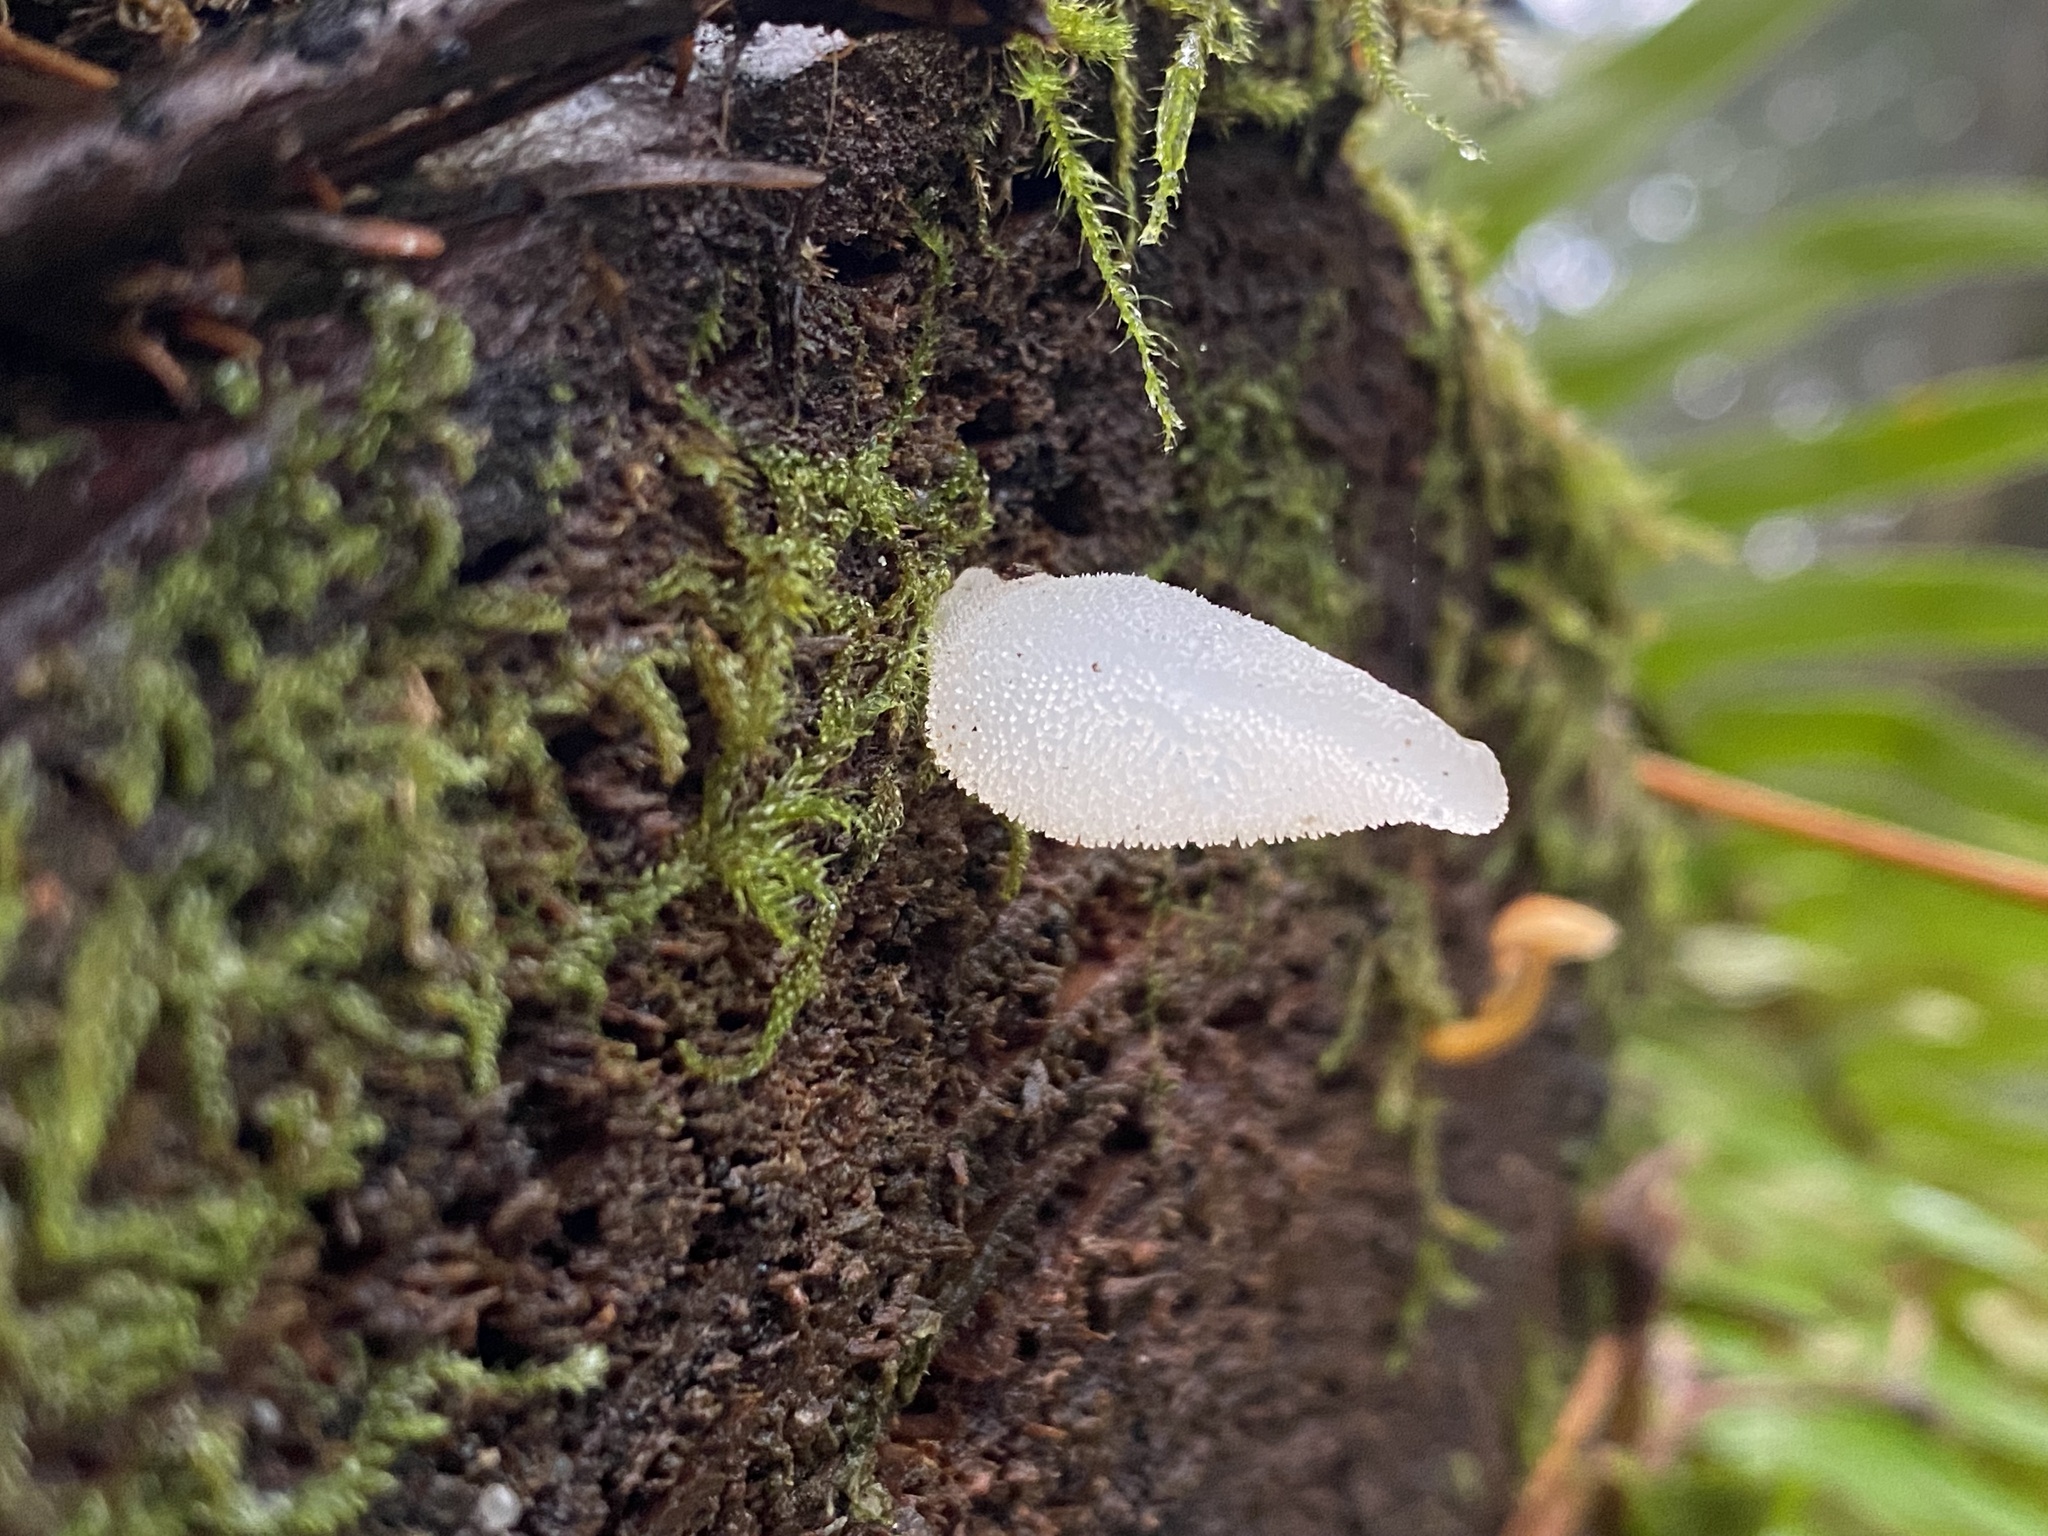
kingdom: Fungi
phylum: Basidiomycota
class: Agaricomycetes
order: Auriculariales
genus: Pseudohydnum
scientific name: Pseudohydnum gelatinosum
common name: Jelly tongue
